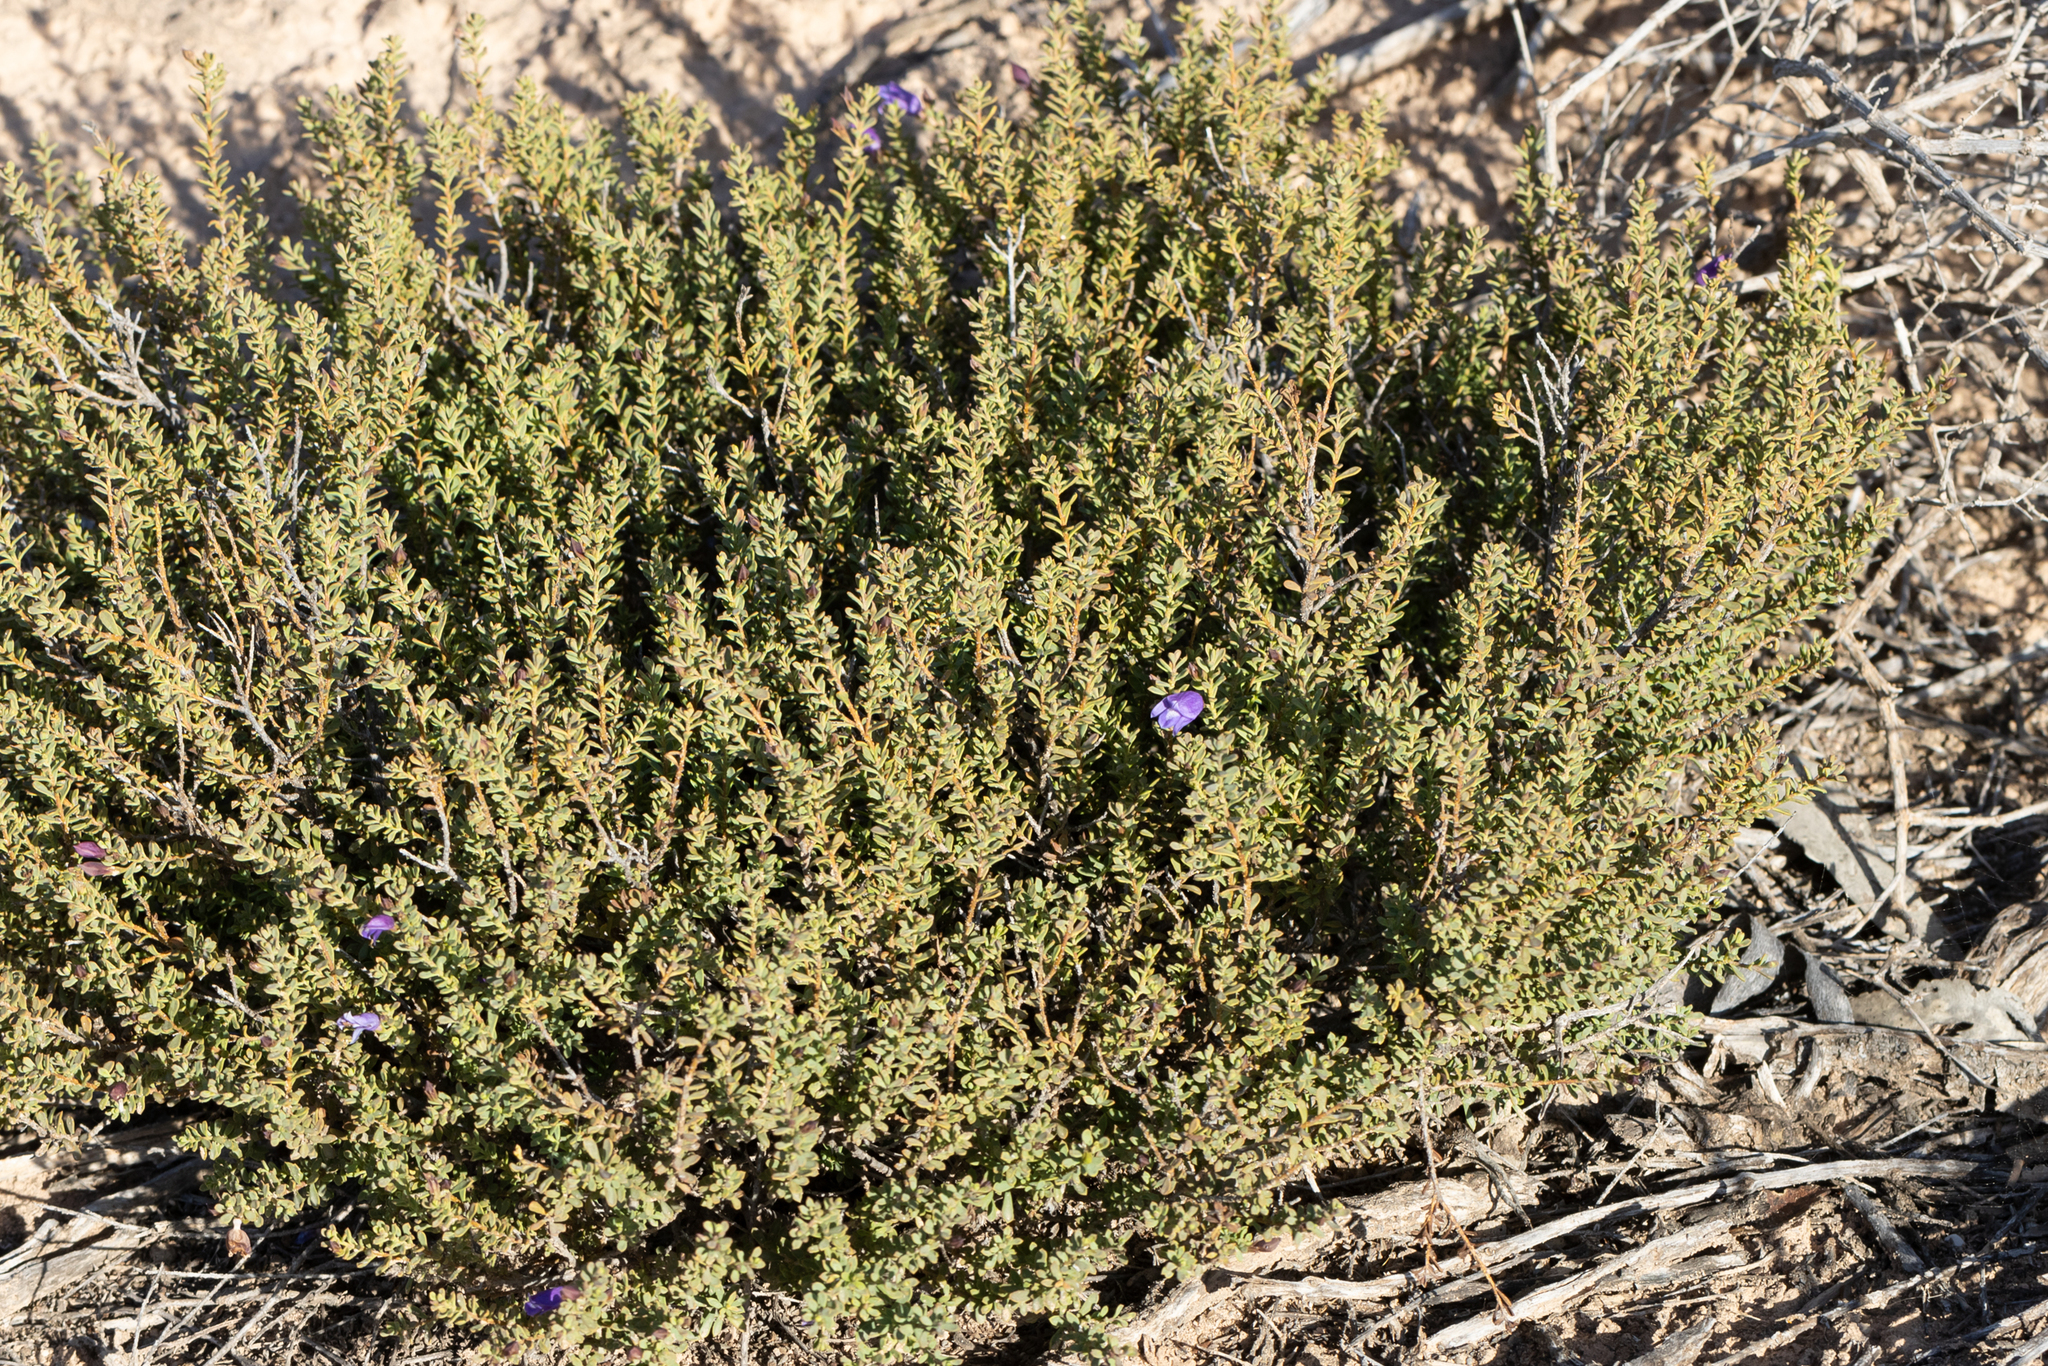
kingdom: Plantae
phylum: Tracheophyta
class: Magnoliopsida
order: Lamiales
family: Scrophulariaceae
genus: Eremophila
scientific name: Eremophila weldii
